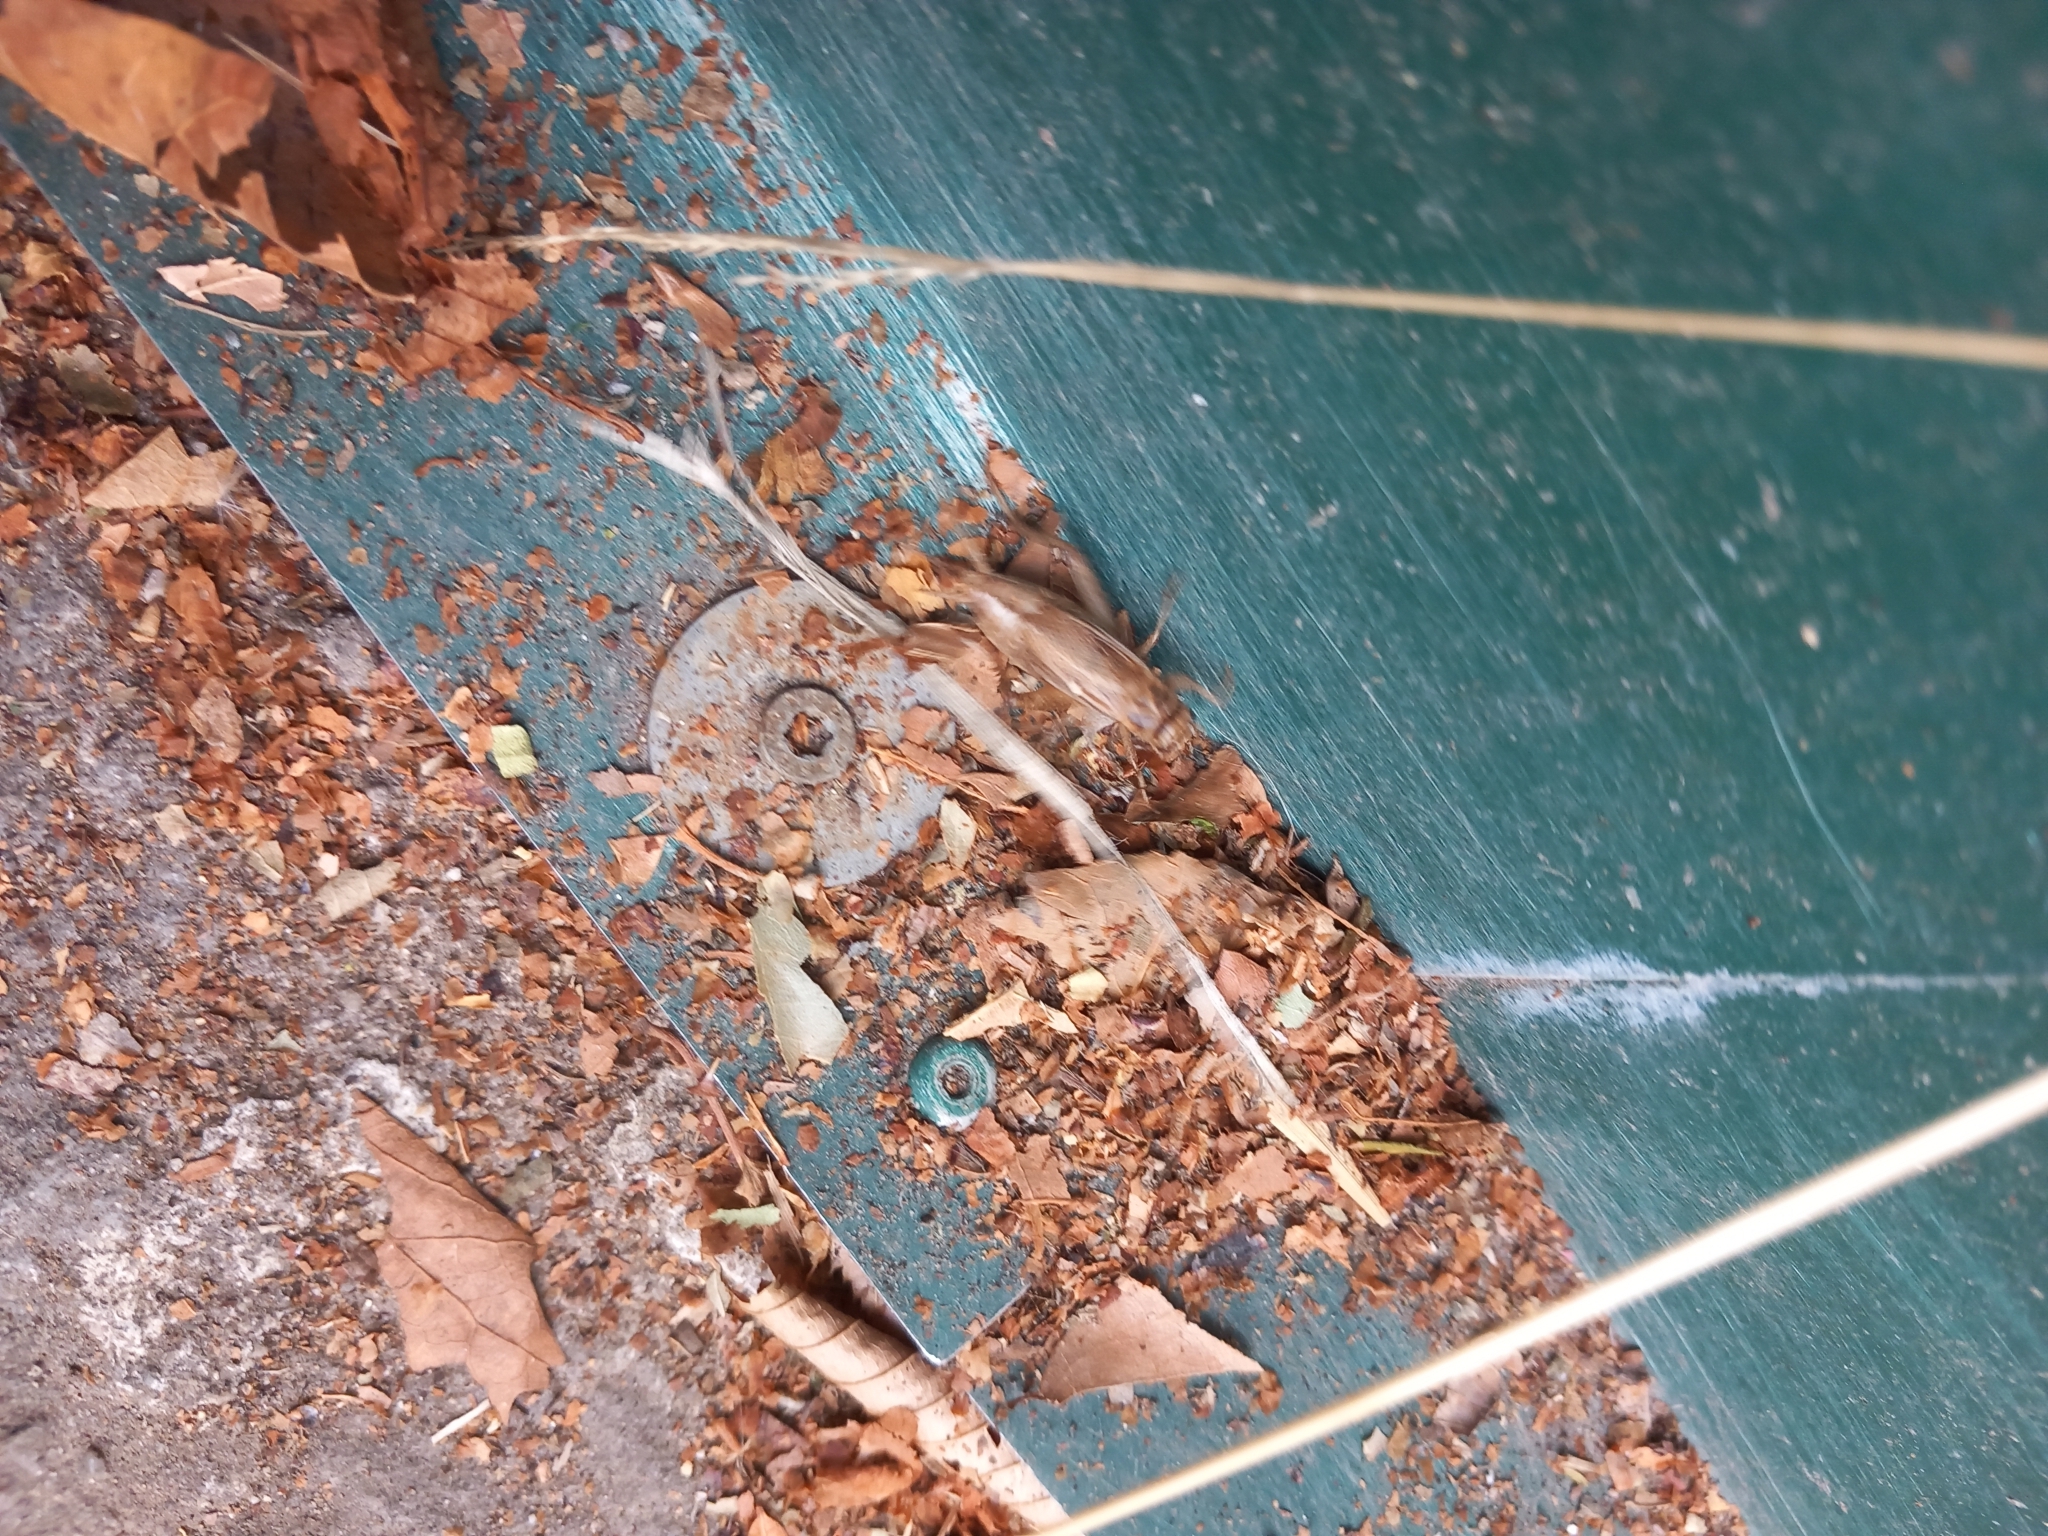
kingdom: Animalia
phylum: Arthropoda
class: Insecta
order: Orthoptera
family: Gryllidae
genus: Acheta
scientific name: Acheta domesticus
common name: House cricket
